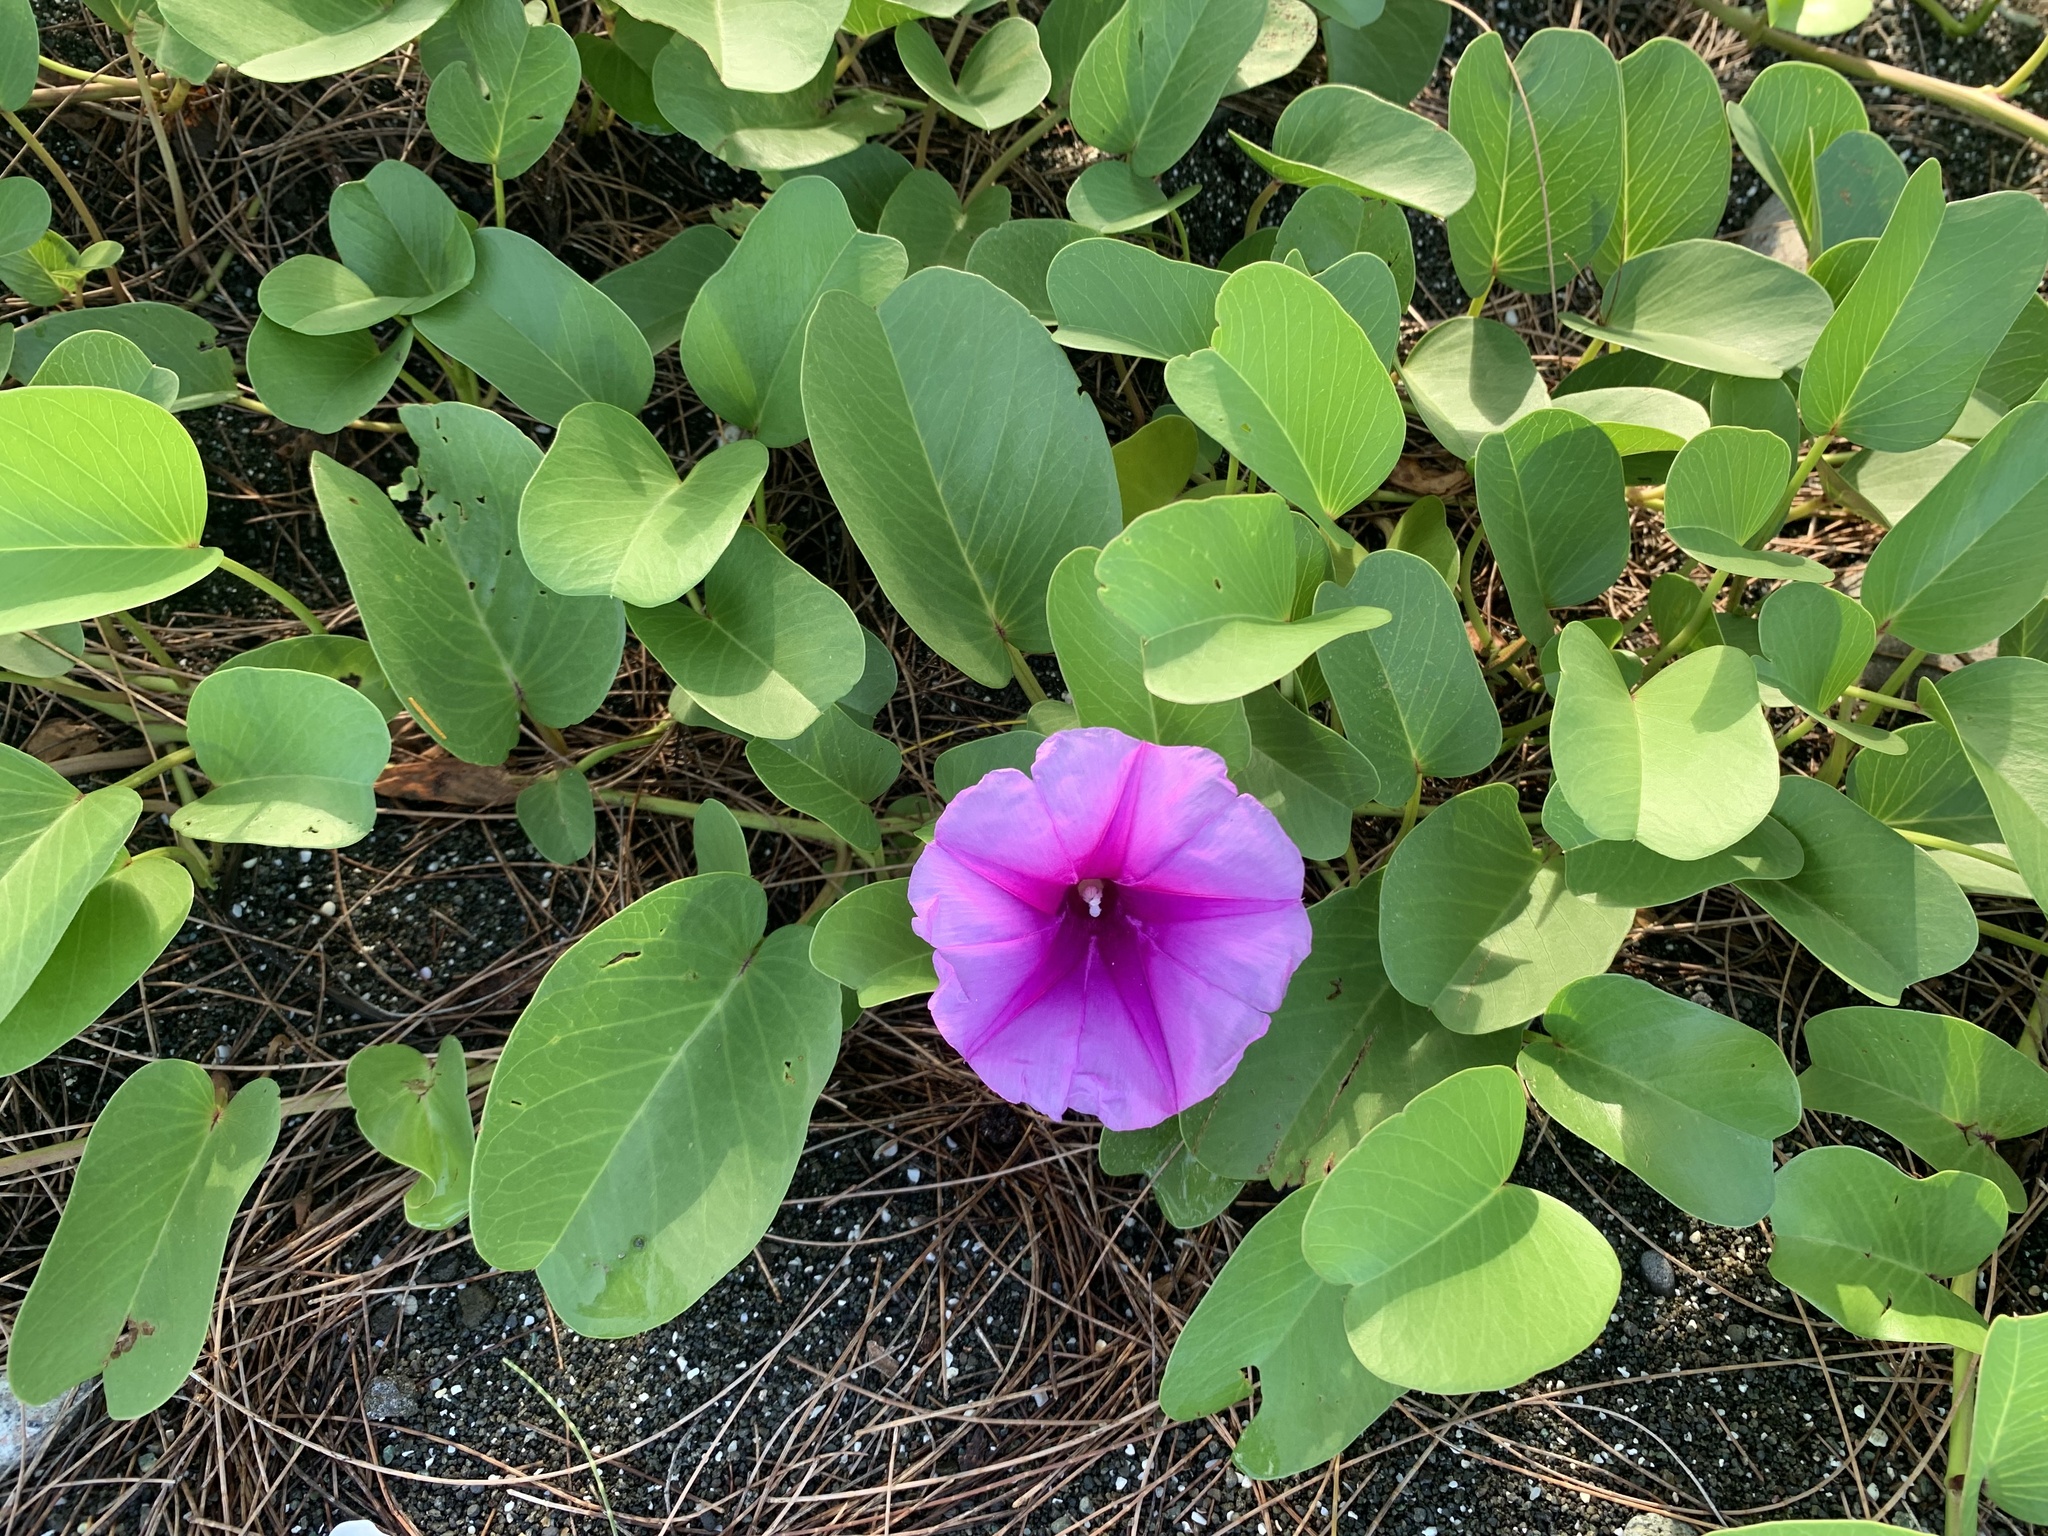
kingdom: Plantae
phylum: Tracheophyta
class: Magnoliopsida
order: Solanales
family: Convolvulaceae
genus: Ipomoea
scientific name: Ipomoea pes-caprae
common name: Beach morning glory
